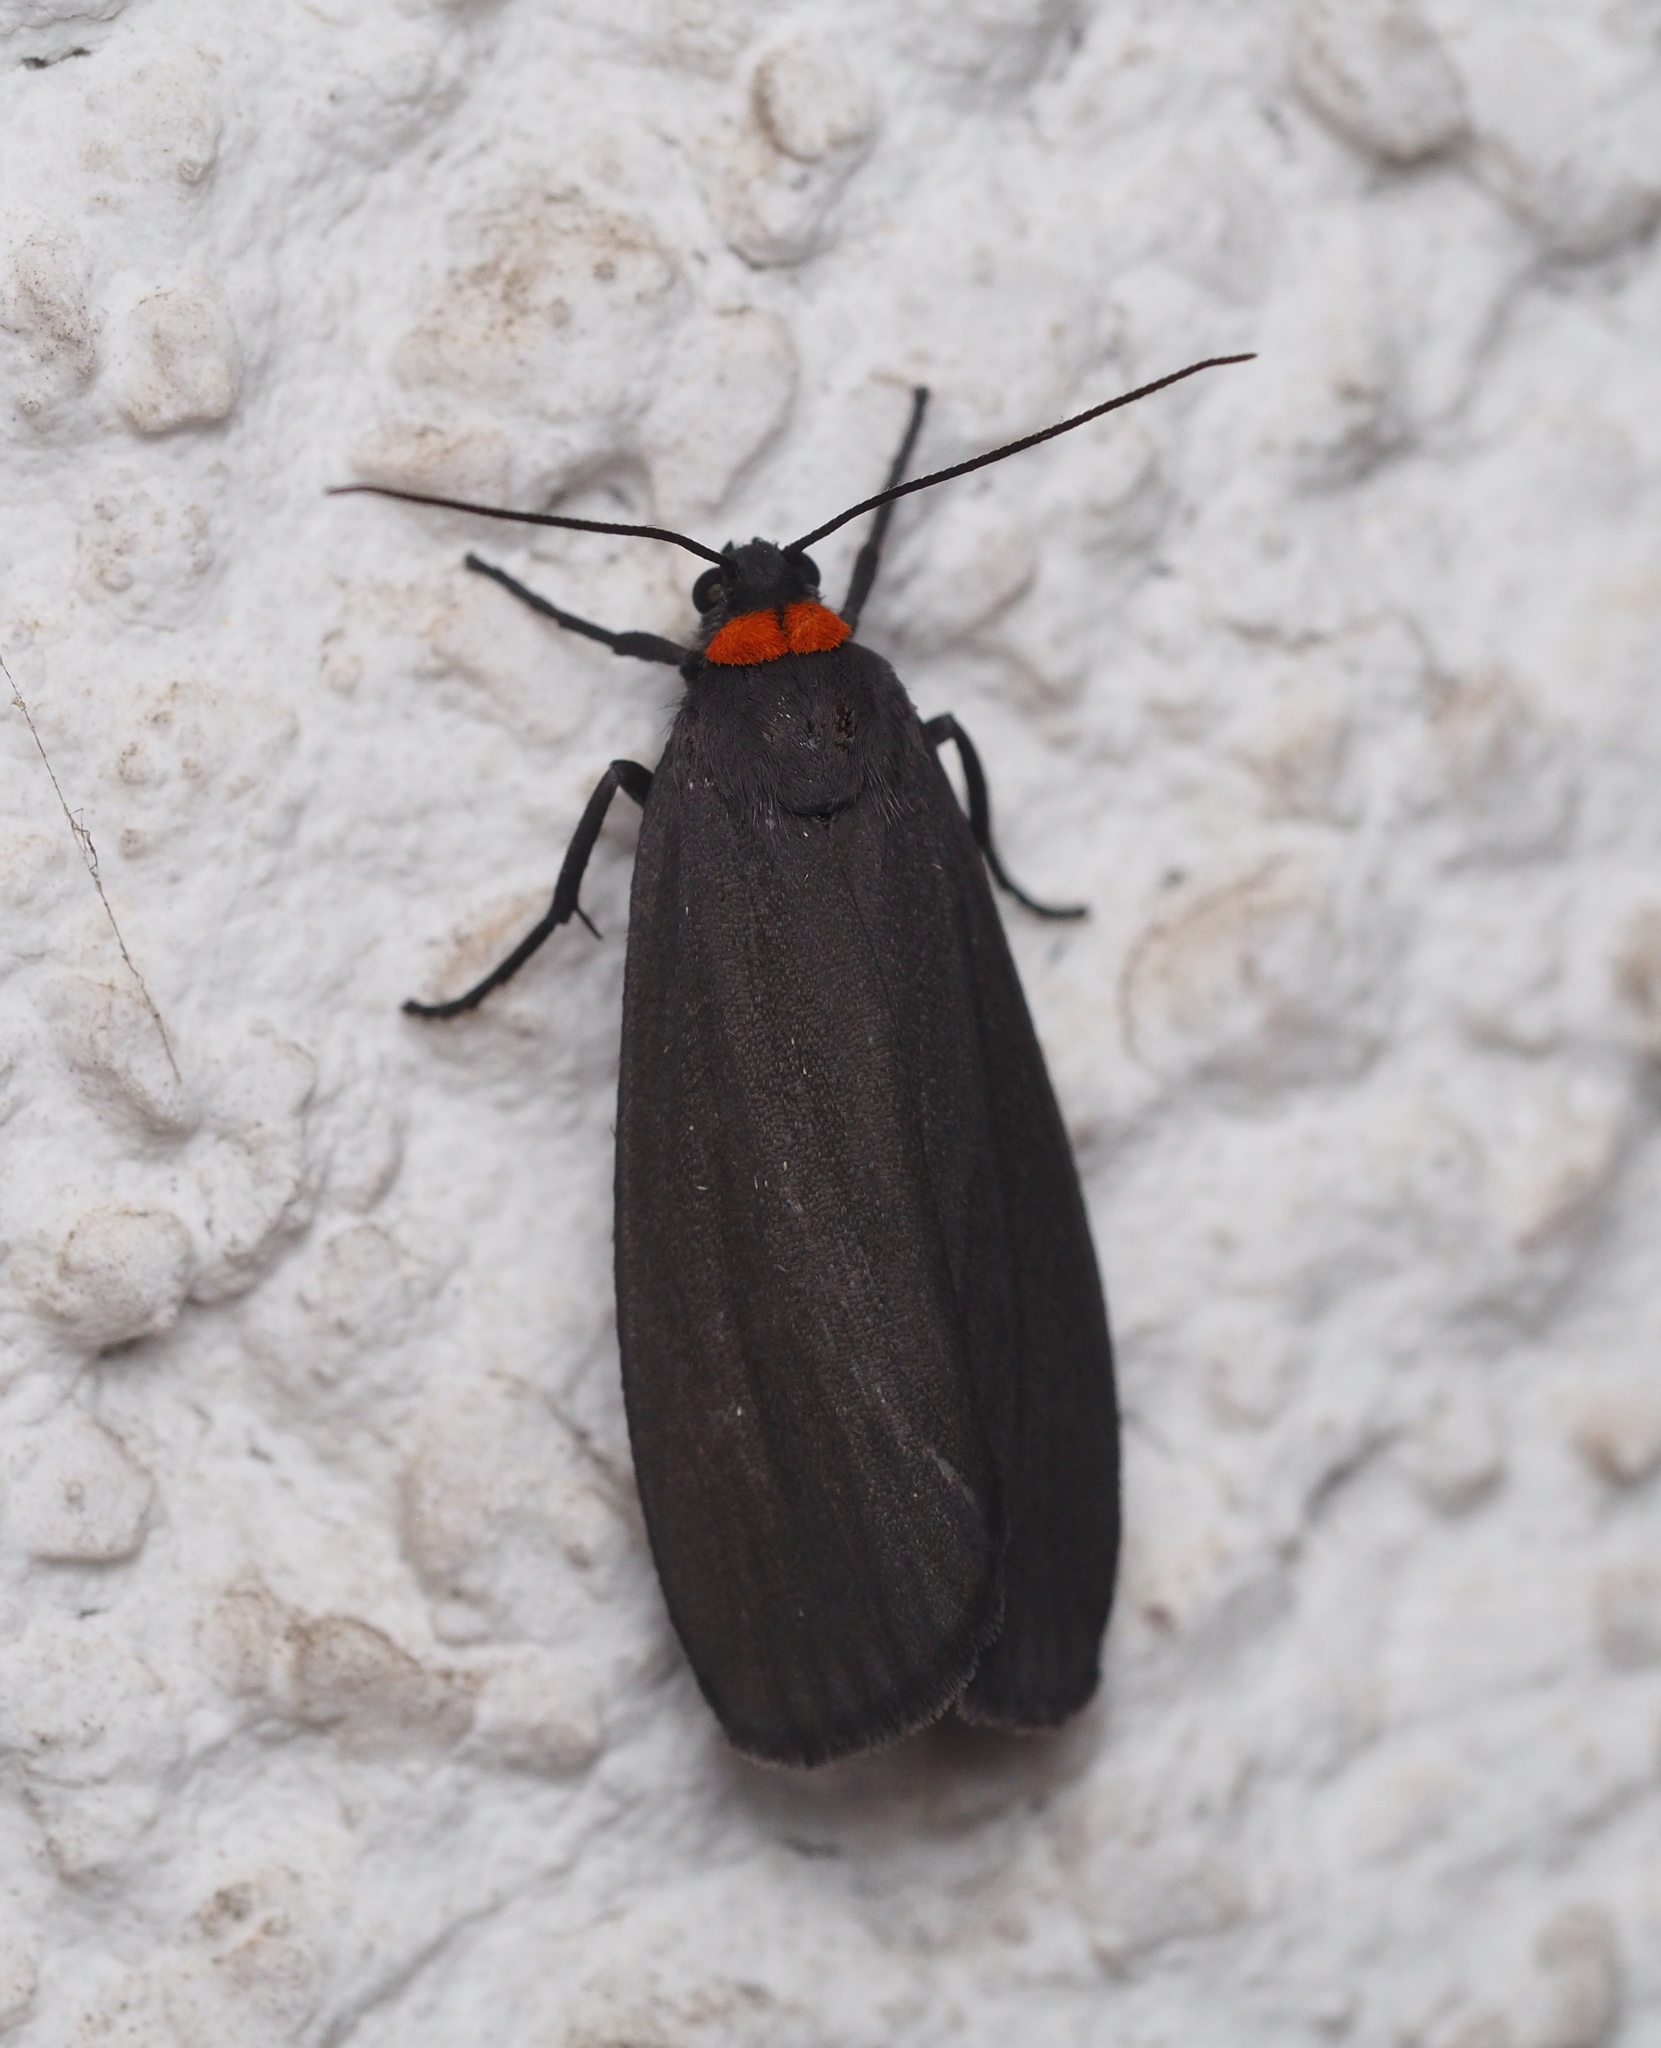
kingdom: Animalia
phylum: Arthropoda
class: Insecta
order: Lepidoptera
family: Erebidae
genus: Atolmis
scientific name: Atolmis rubricollis
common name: Red-necked footman
